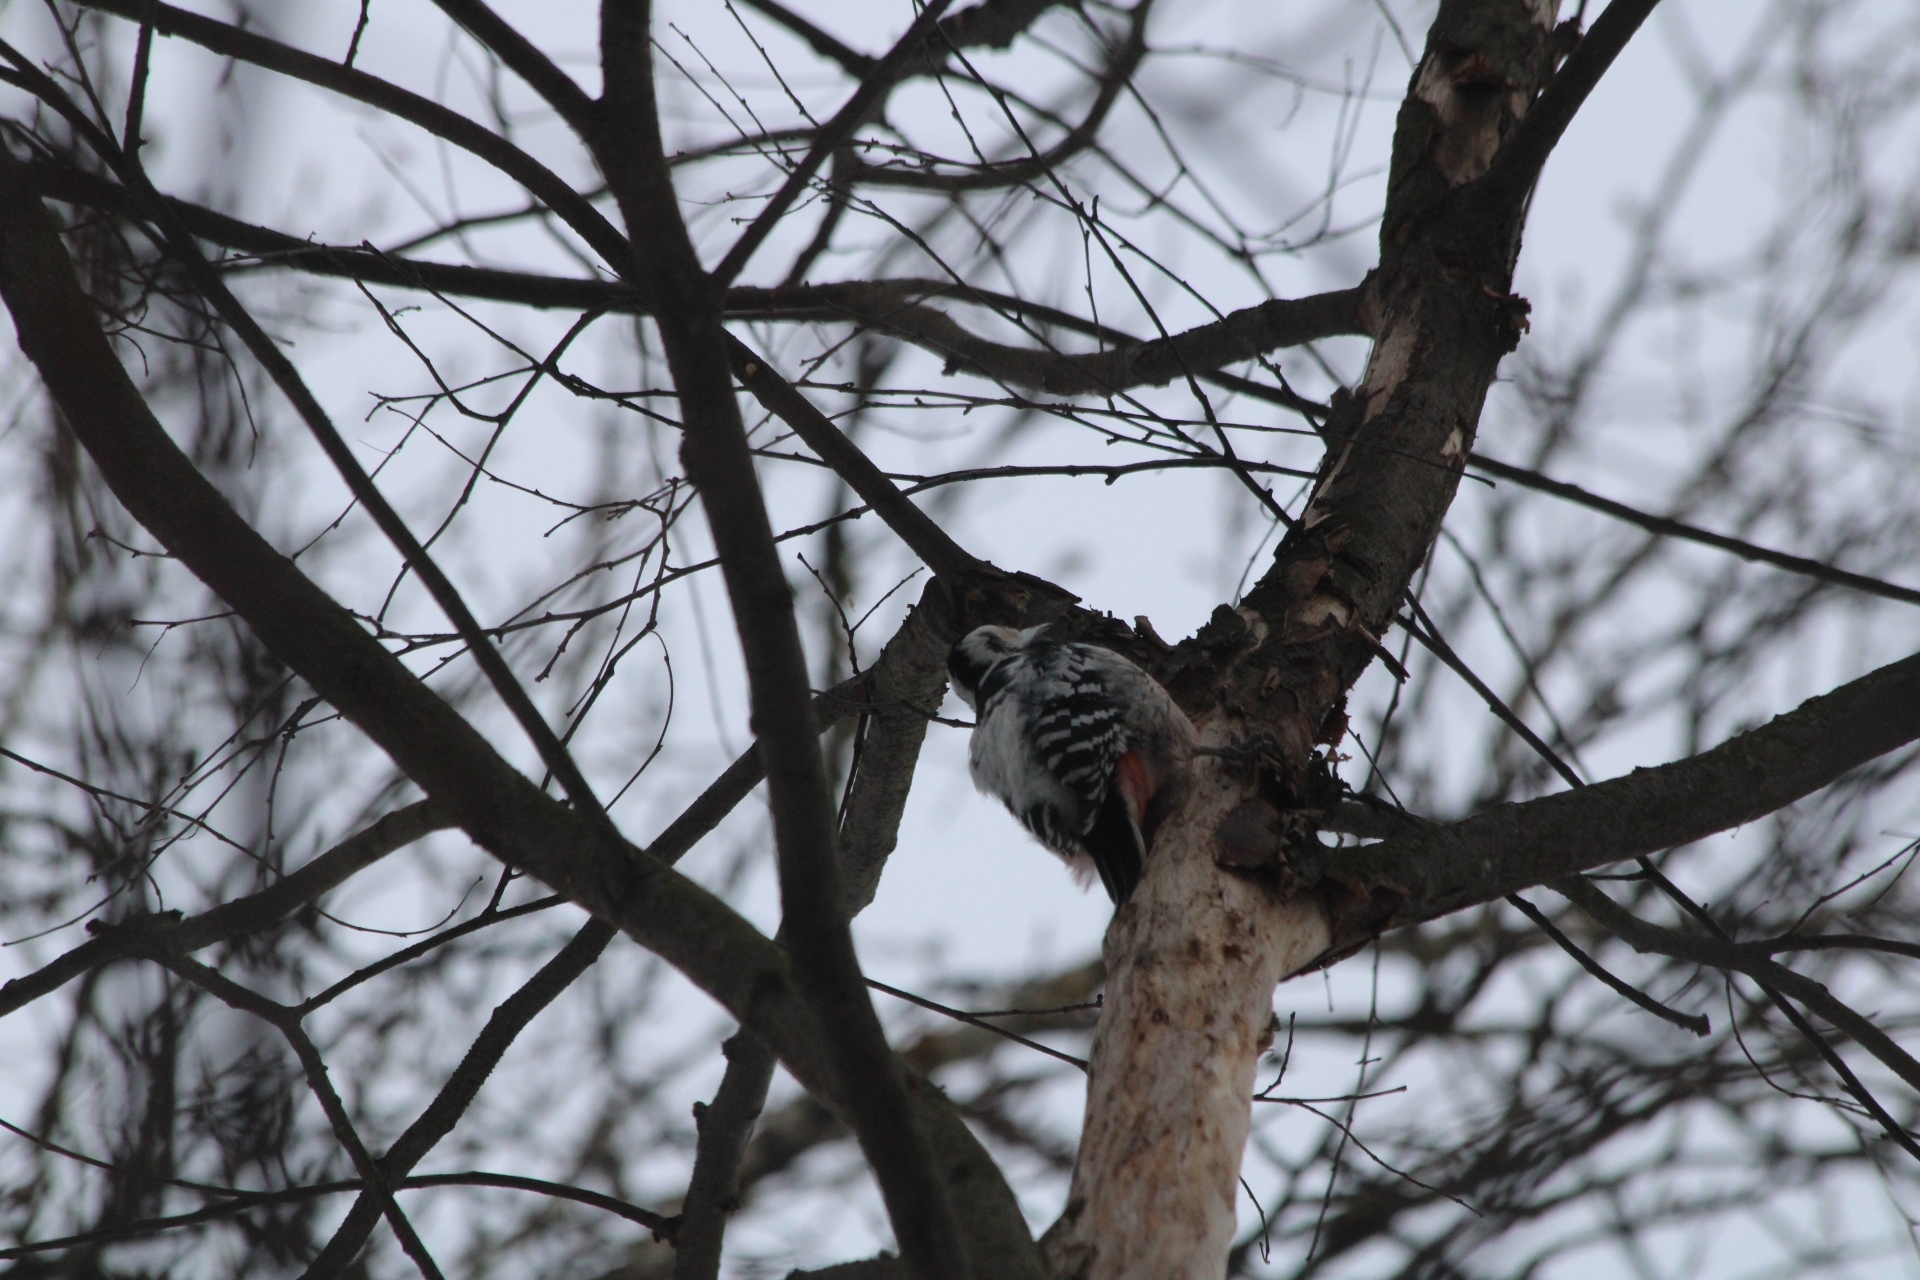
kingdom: Animalia
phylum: Chordata
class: Aves
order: Piciformes
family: Picidae
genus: Dendrocopos
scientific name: Dendrocopos leucotos
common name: White-backed woodpecker
